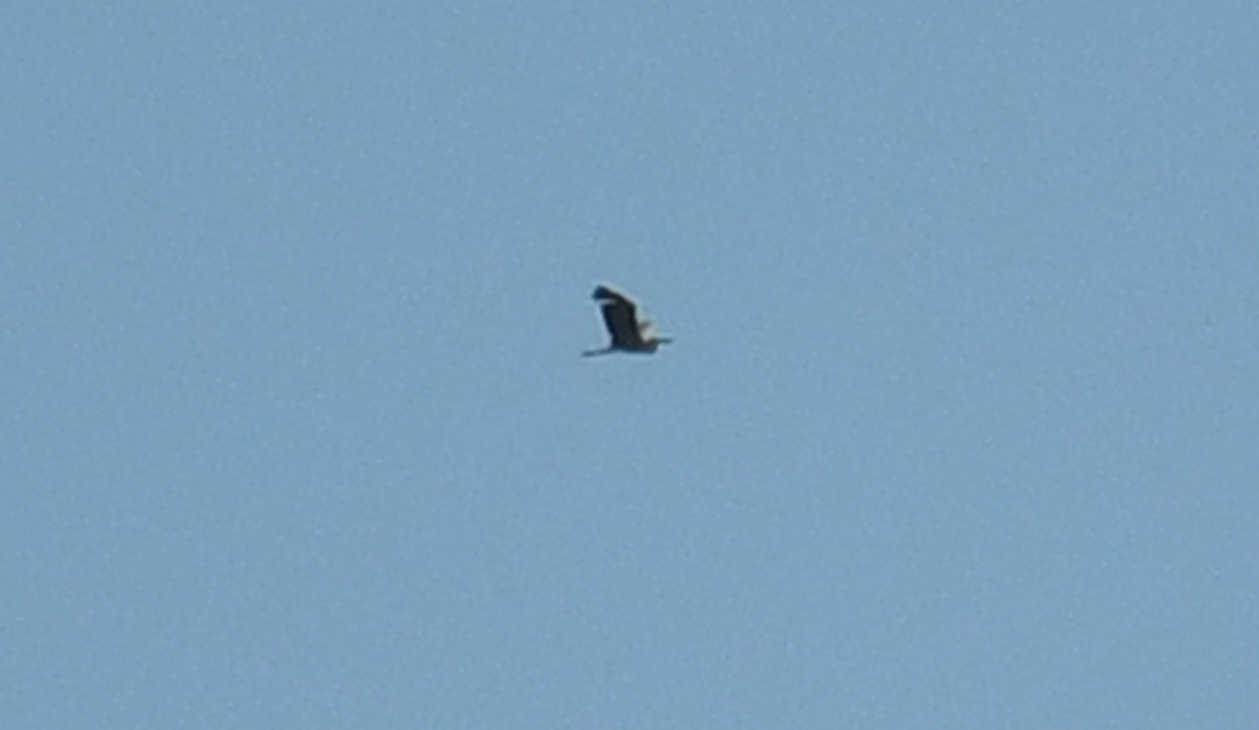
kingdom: Animalia
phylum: Chordata
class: Aves
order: Pelecaniformes
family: Ardeidae
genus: Ardea
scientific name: Ardea cinerea
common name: Grey heron
